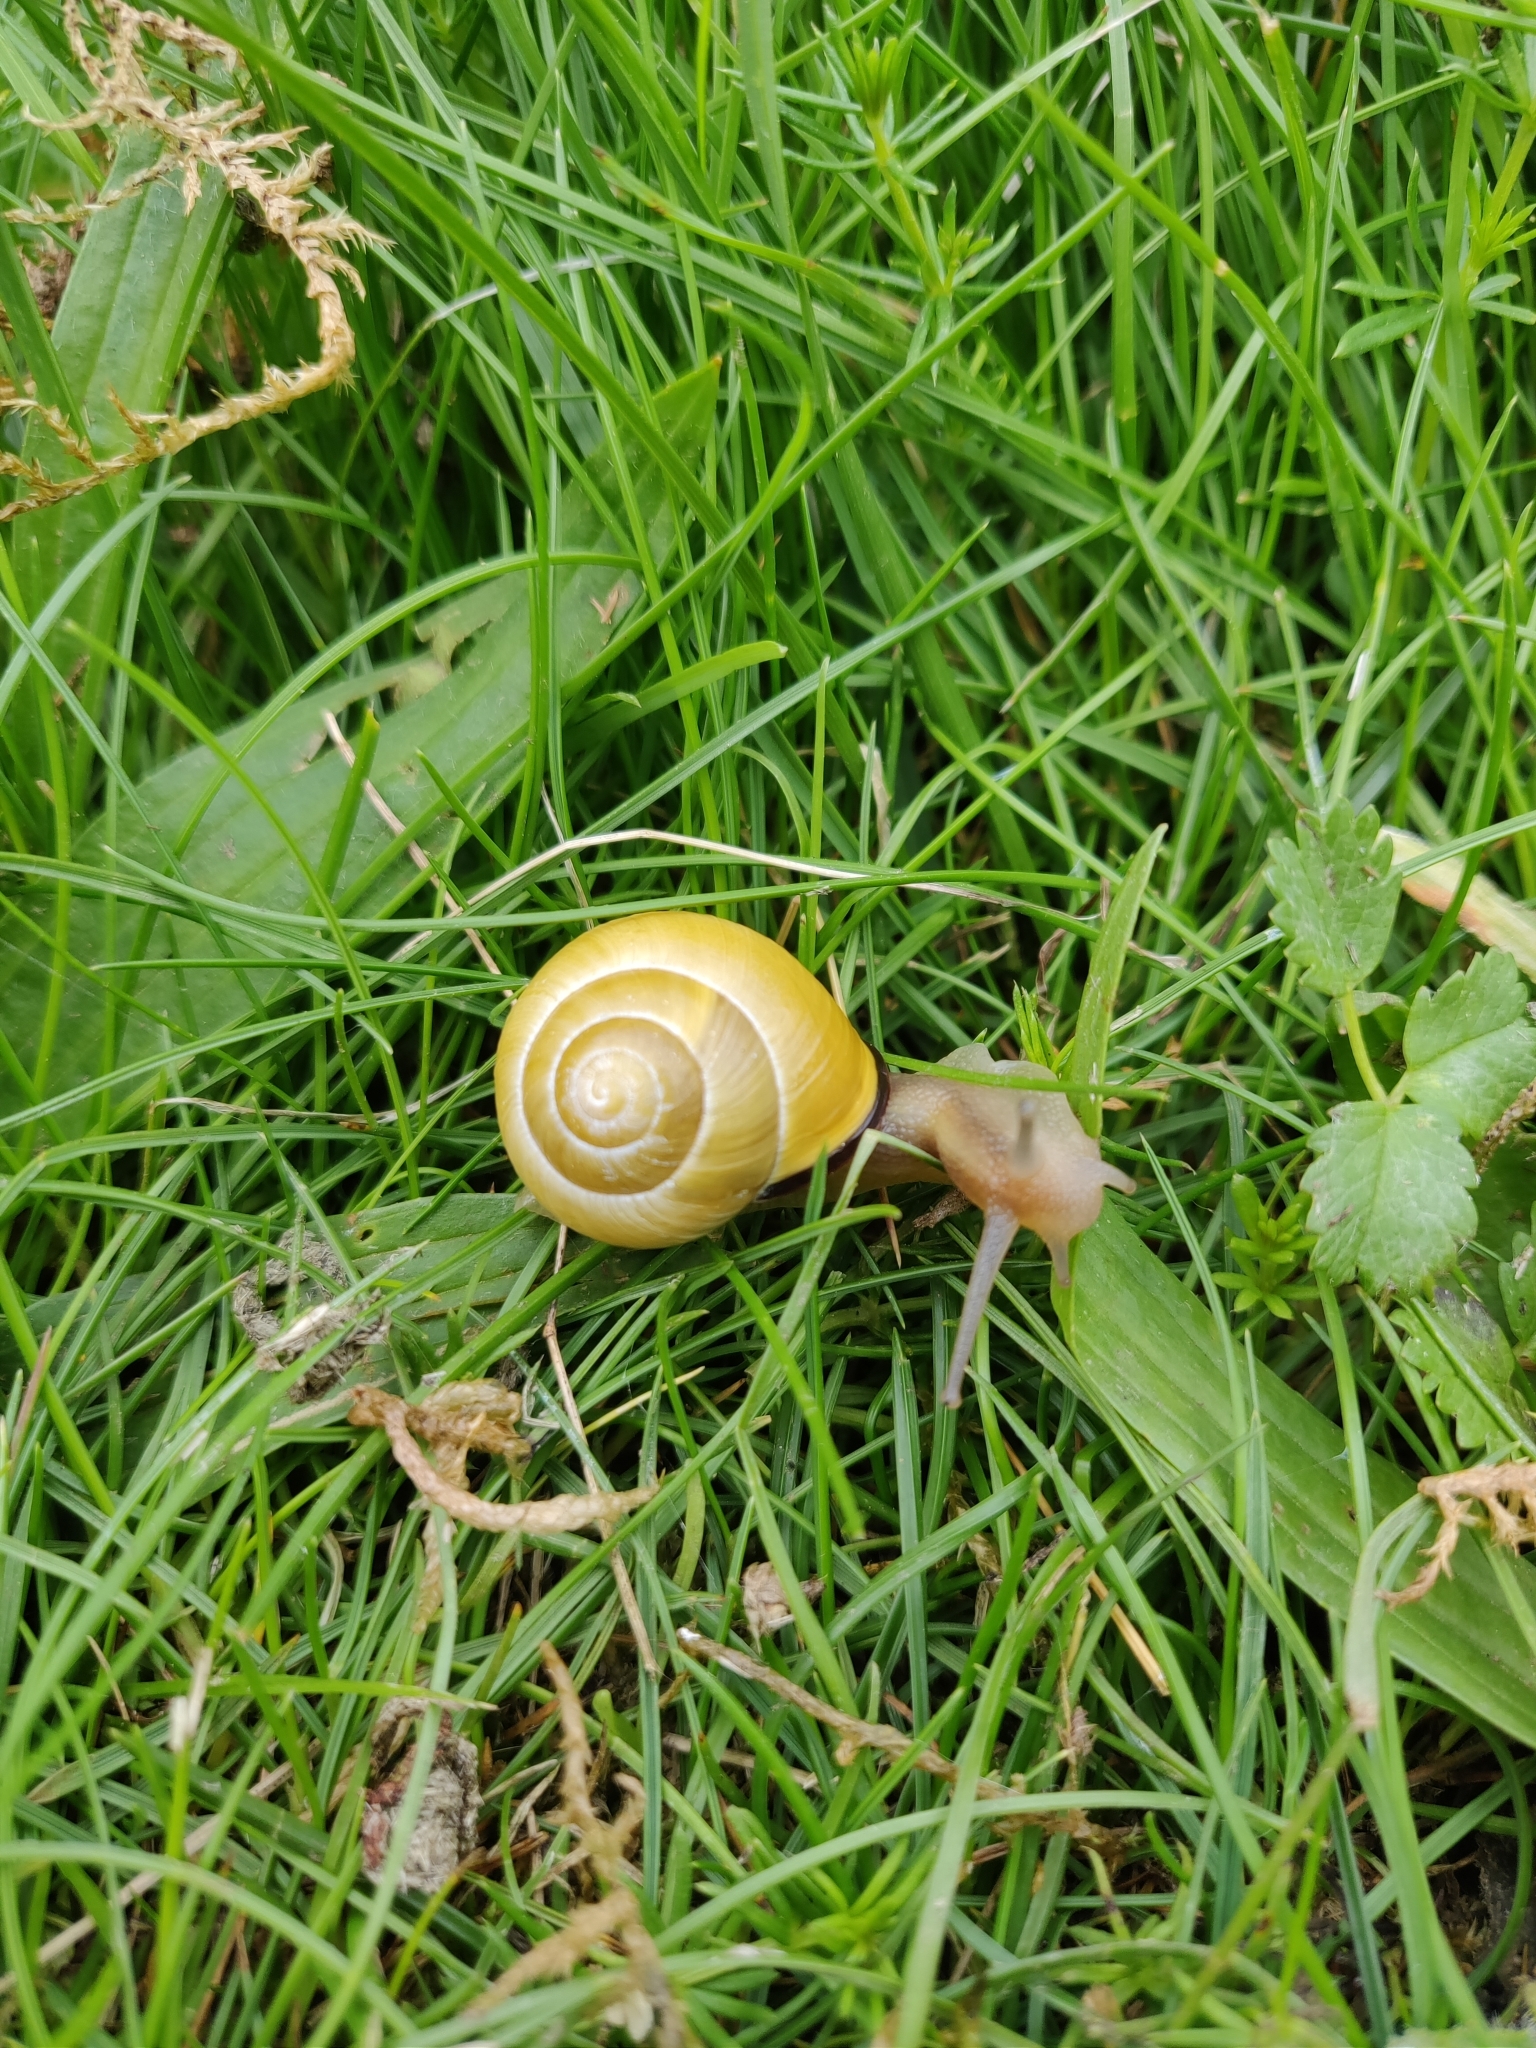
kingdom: Animalia
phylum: Mollusca
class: Gastropoda
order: Stylommatophora
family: Helicidae
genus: Cepaea
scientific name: Cepaea nemoralis
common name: Grovesnail
